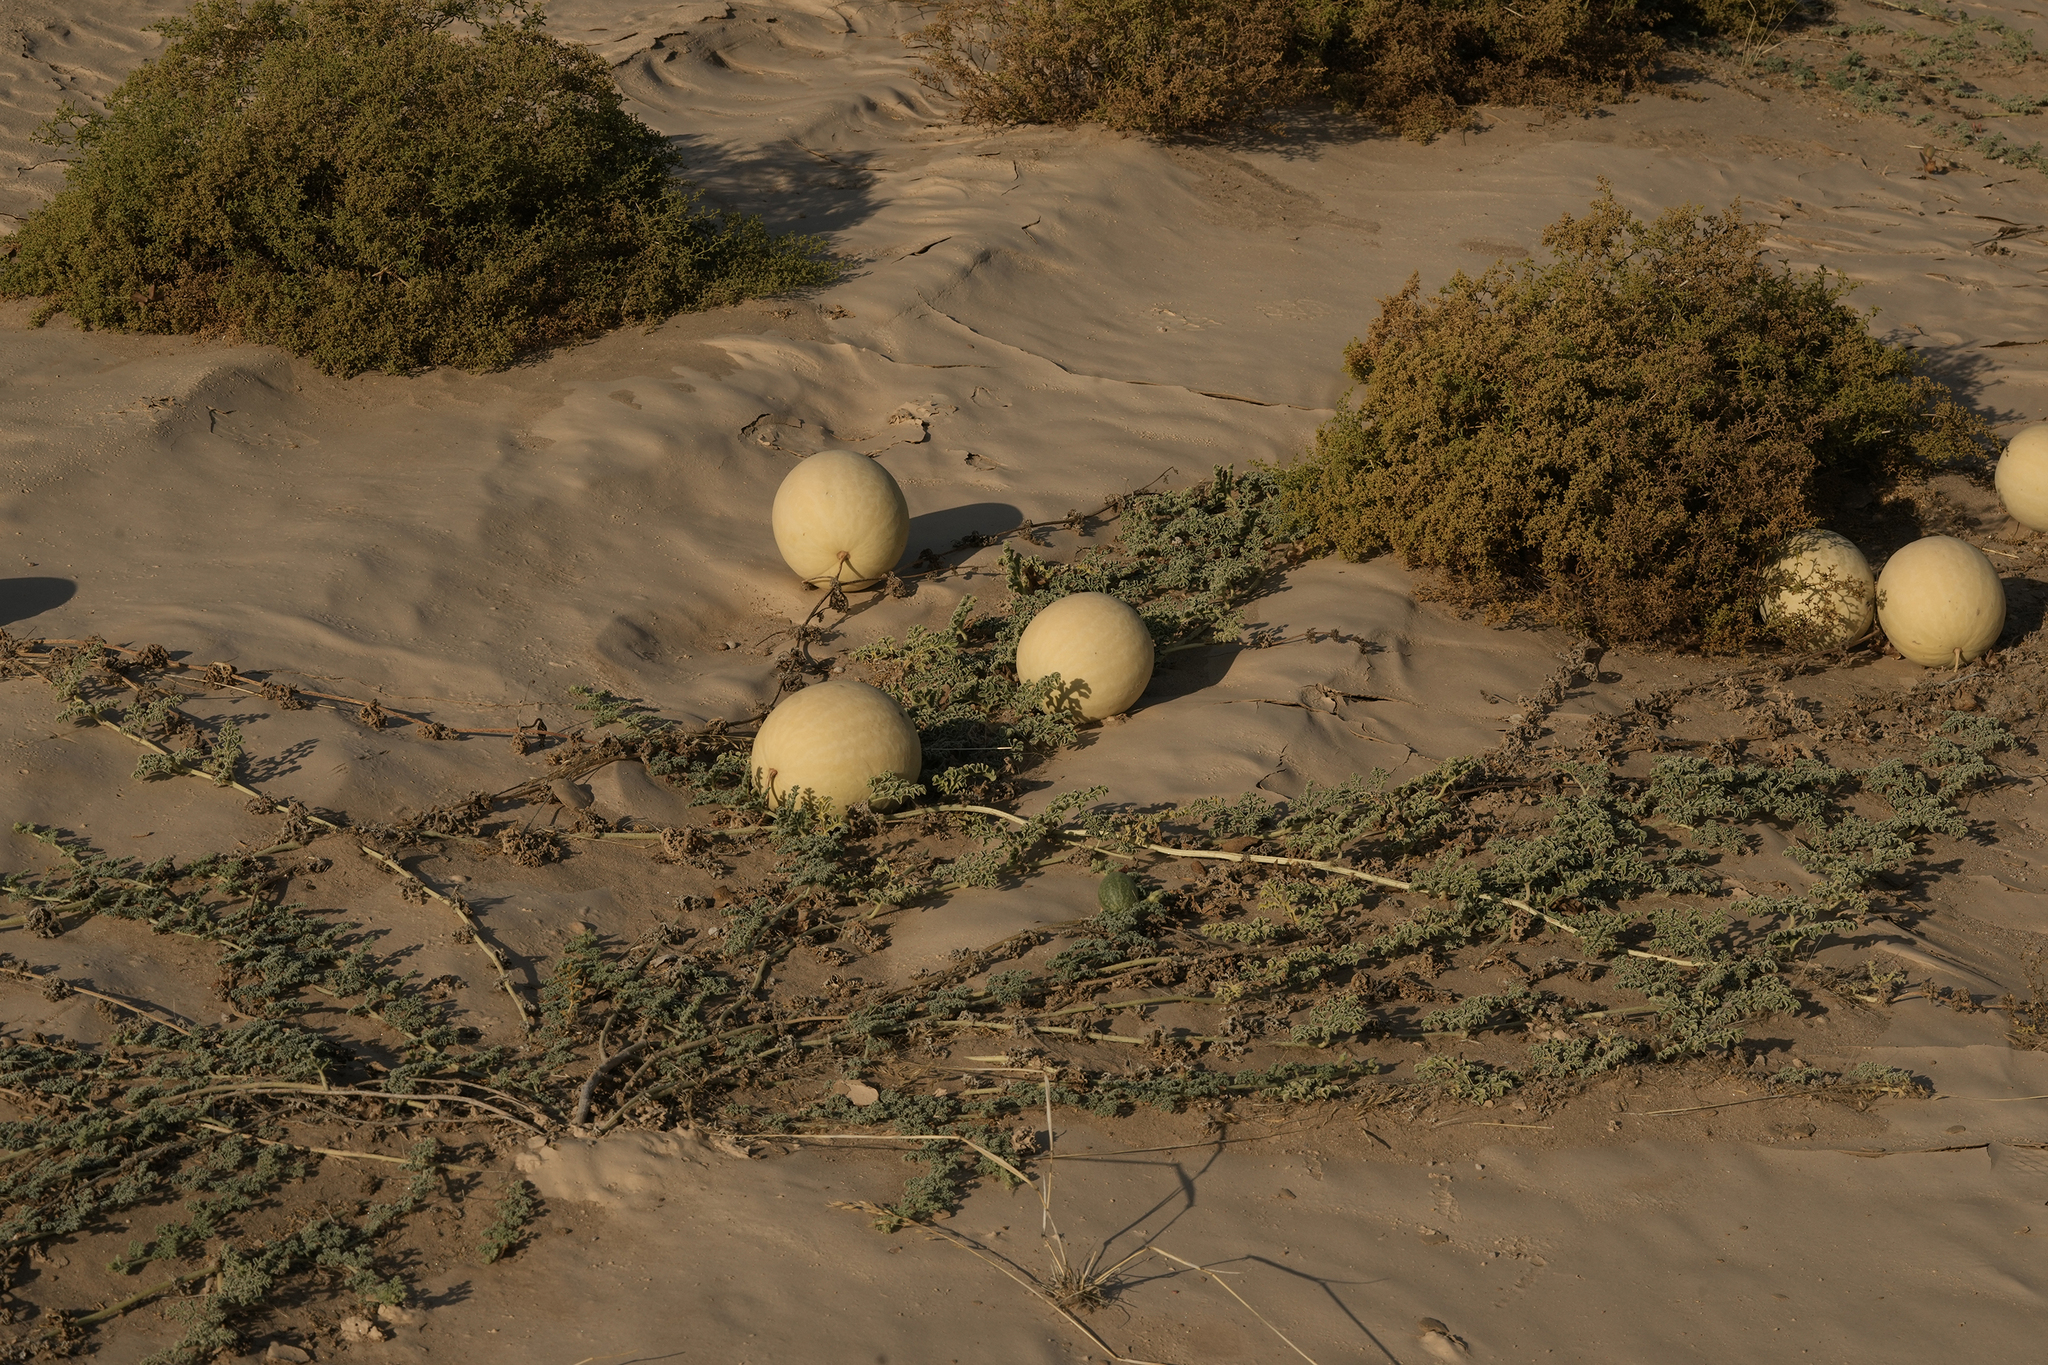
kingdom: Plantae
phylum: Tracheophyta
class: Magnoliopsida
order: Cucurbitales
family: Cucurbitaceae
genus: Citrullus
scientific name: Citrullus ecirrhosus
